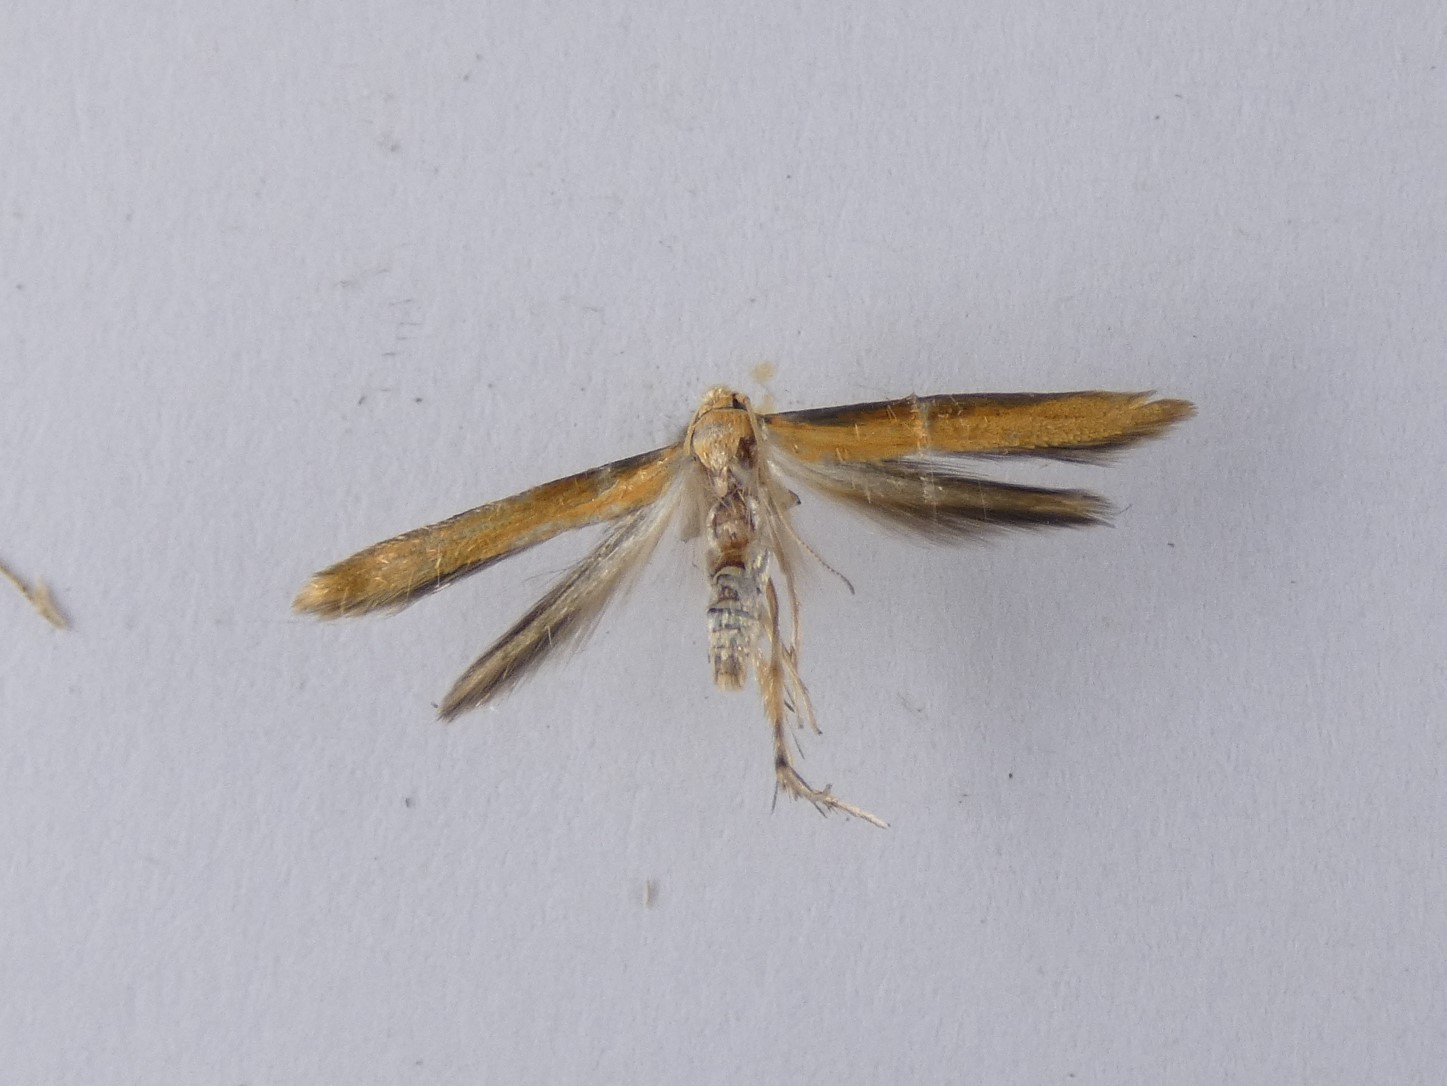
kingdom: Animalia
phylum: Arthropoda
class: Insecta
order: Lepidoptera
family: Stathmopodidae
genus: Stathmopoda
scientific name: Stathmopoda skelloni
